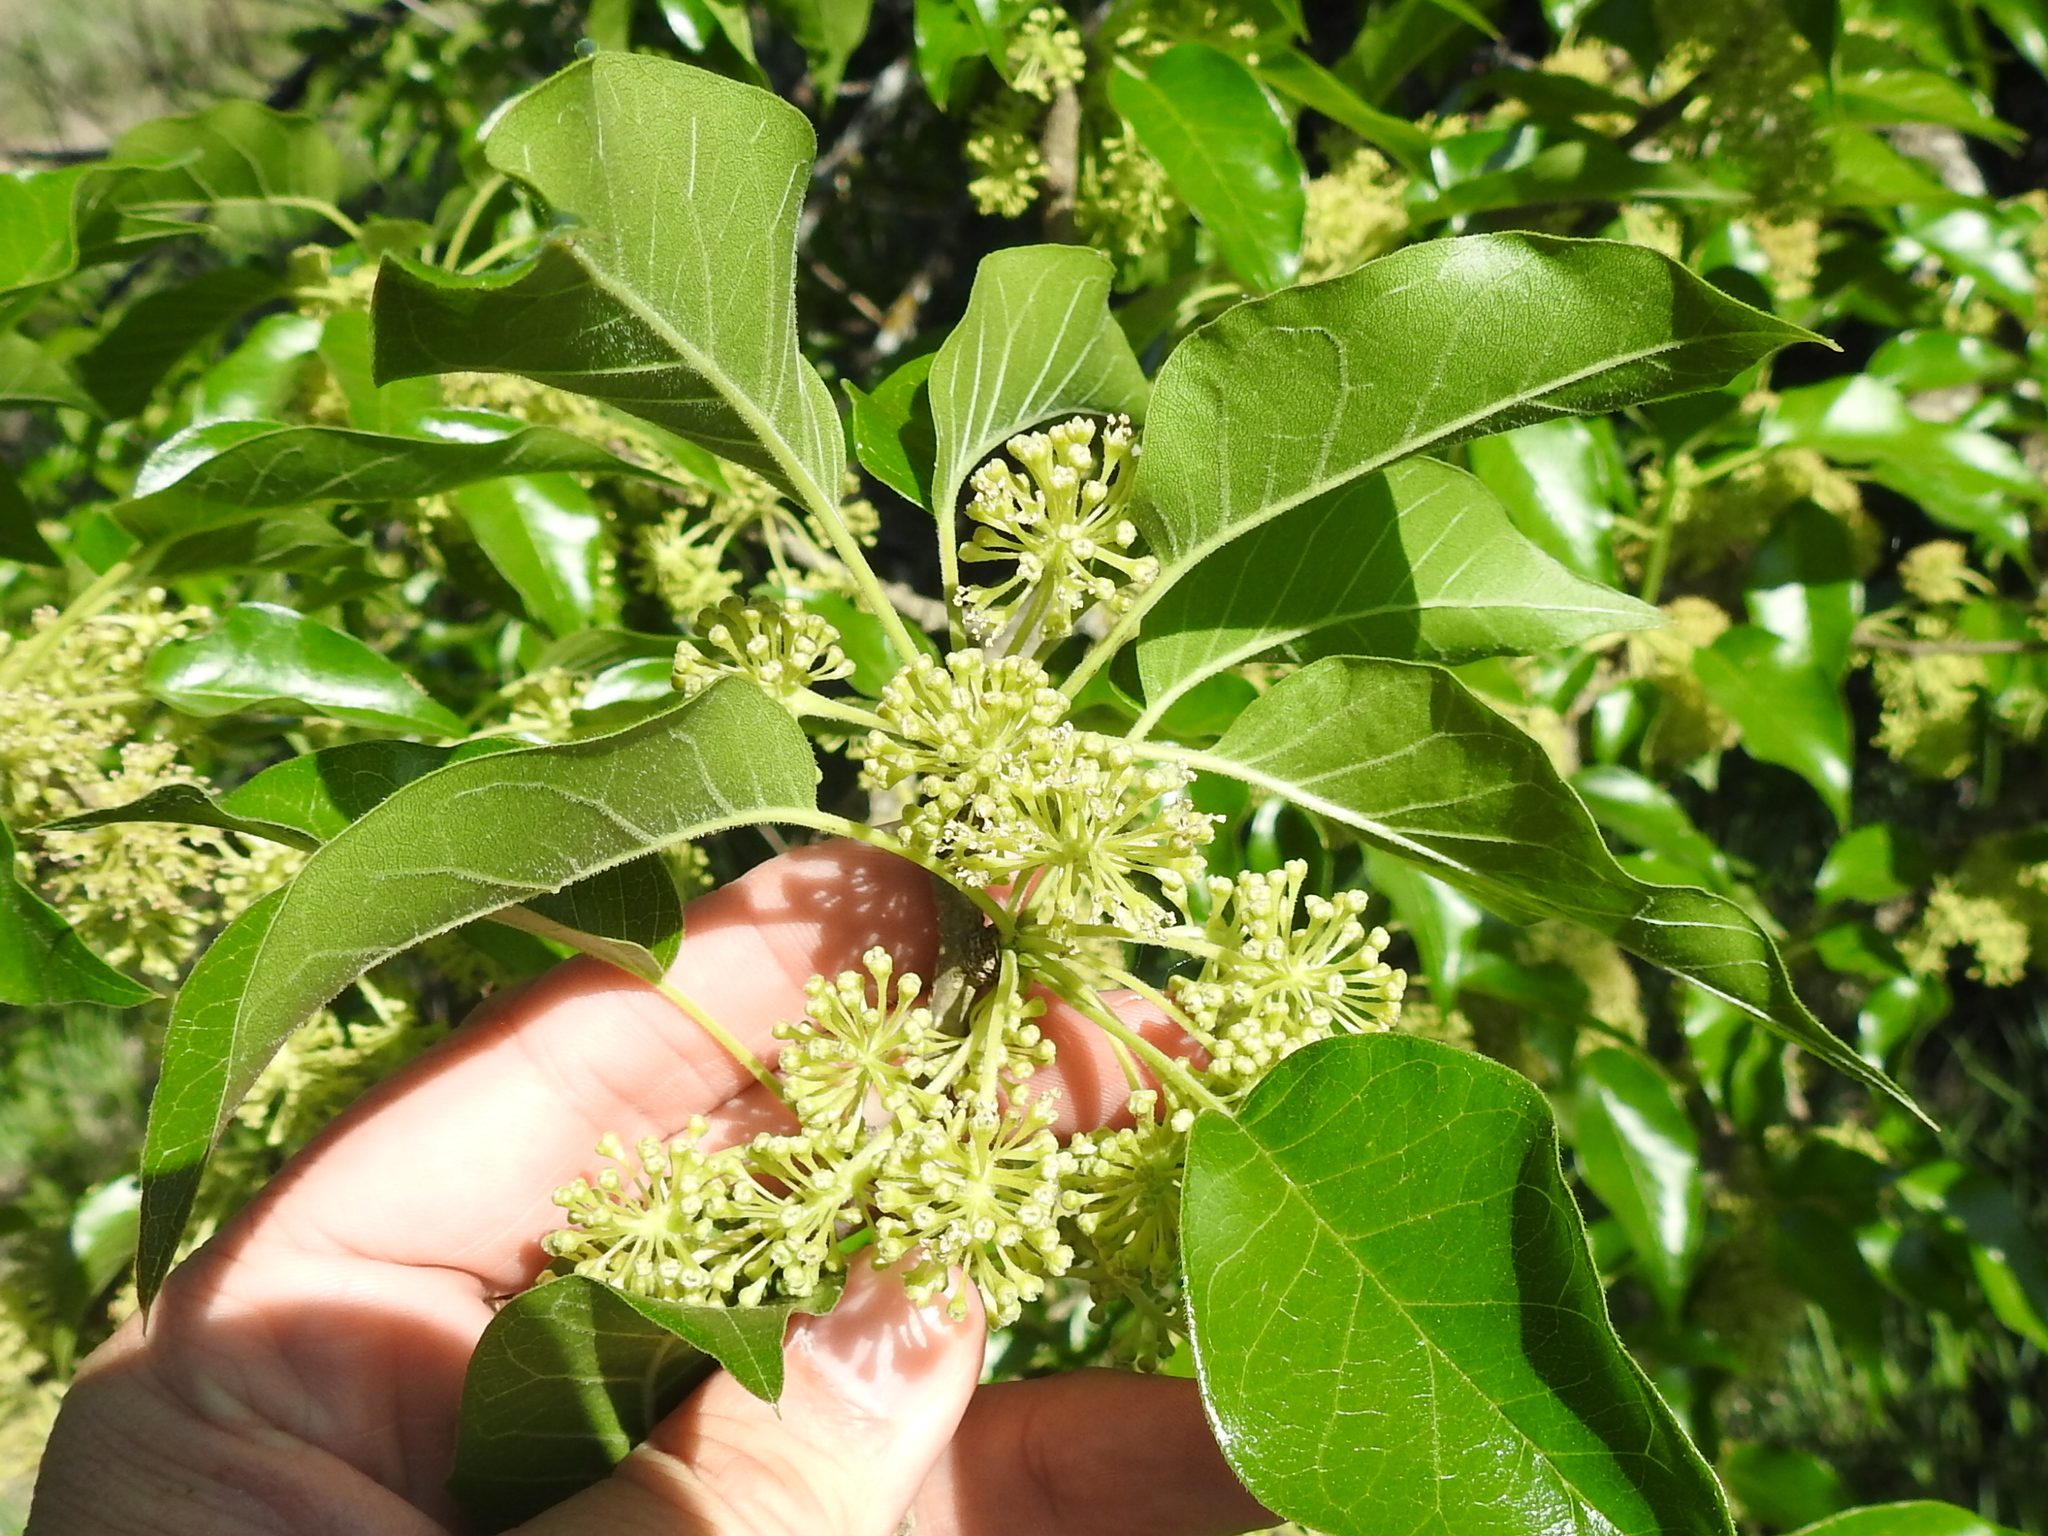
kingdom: Plantae
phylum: Tracheophyta
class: Magnoliopsida
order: Rosales
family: Moraceae
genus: Maclura
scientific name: Maclura pomifera
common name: Osage-orange
